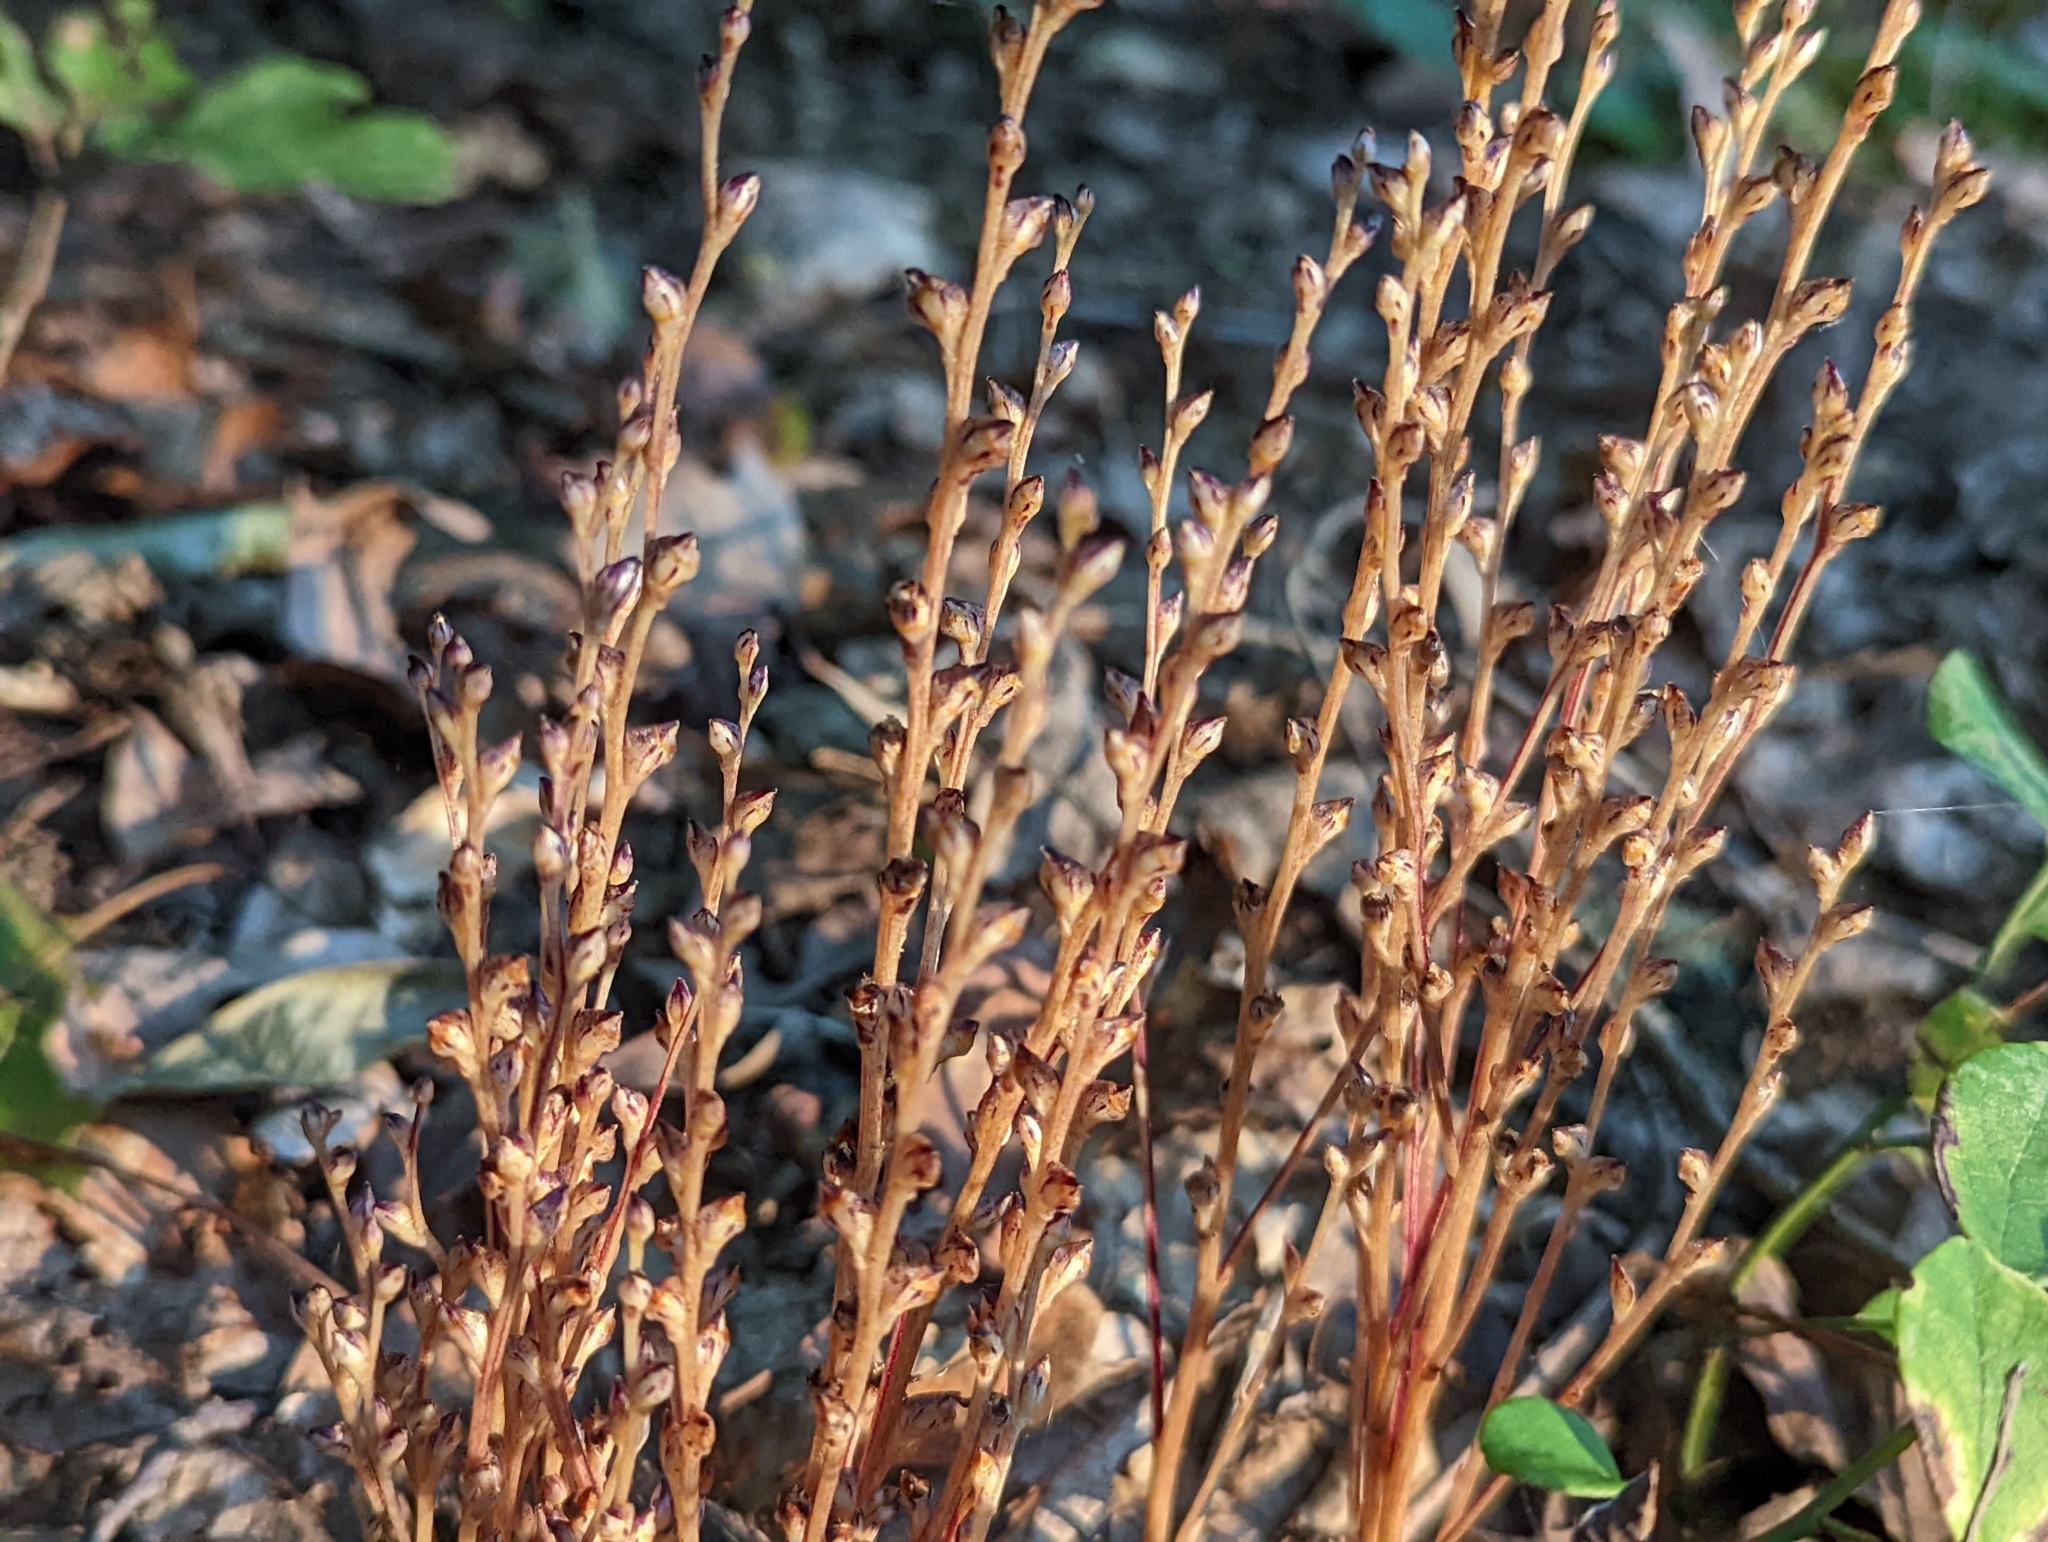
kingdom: Plantae
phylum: Tracheophyta
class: Magnoliopsida
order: Lamiales
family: Orobanchaceae
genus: Epifagus
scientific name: Epifagus virginiana
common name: Beechdrops
